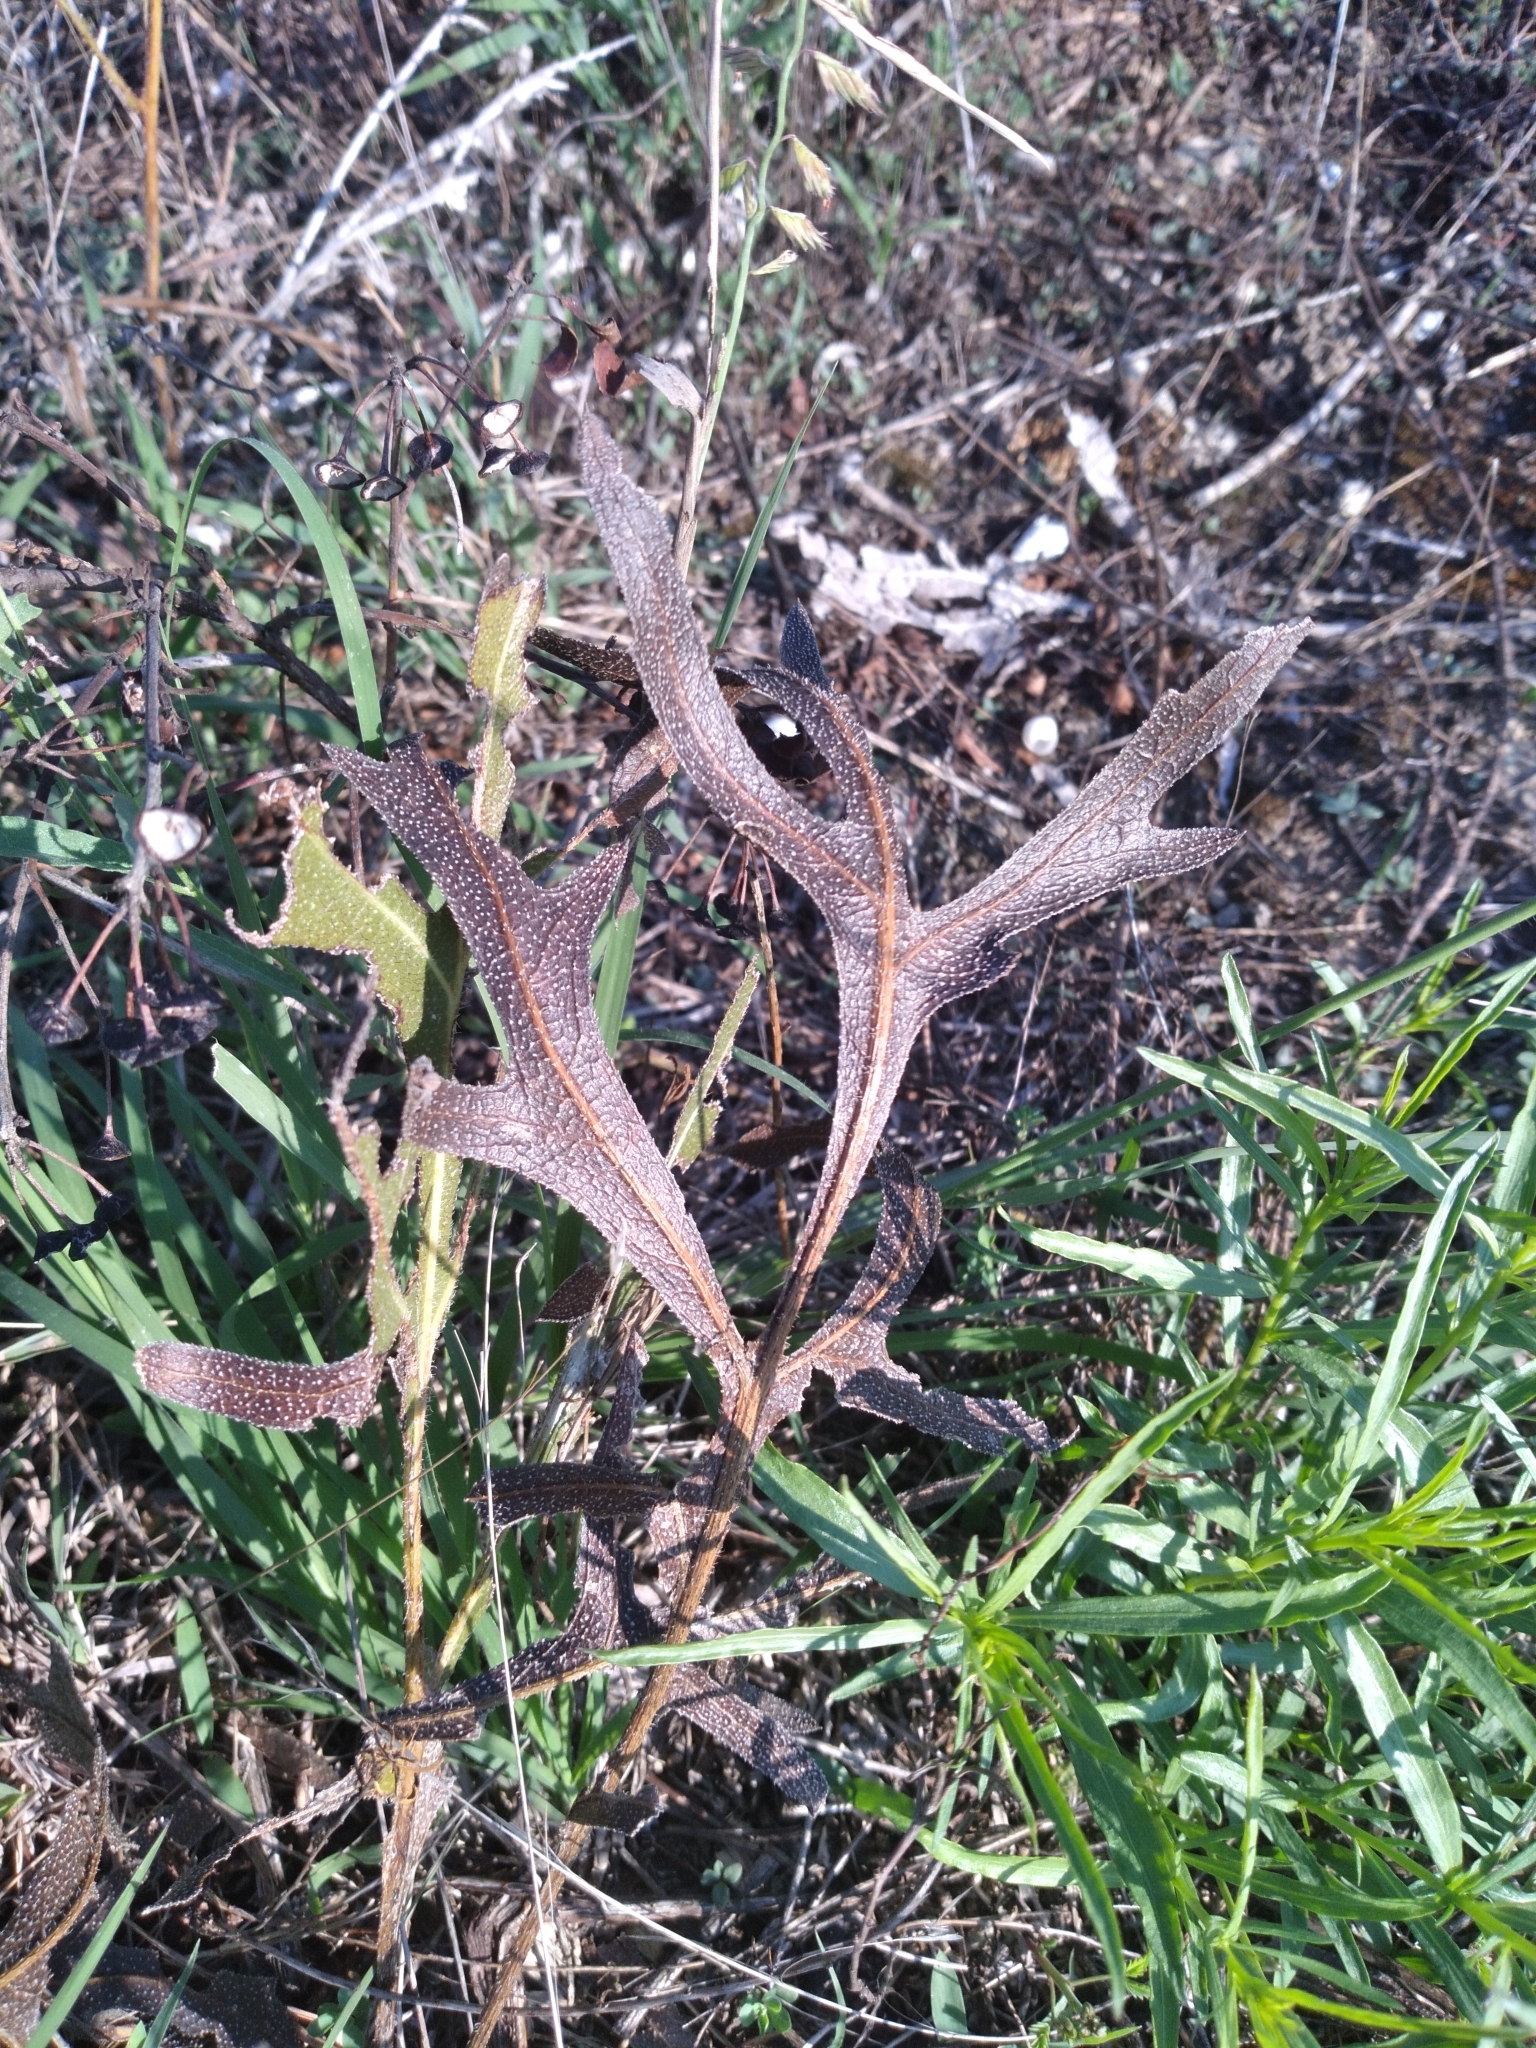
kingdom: Plantae
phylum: Tracheophyta
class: Magnoliopsida
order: Asterales
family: Asteraceae
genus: Silphium
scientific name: Silphium laciniatum
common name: Polarplant
